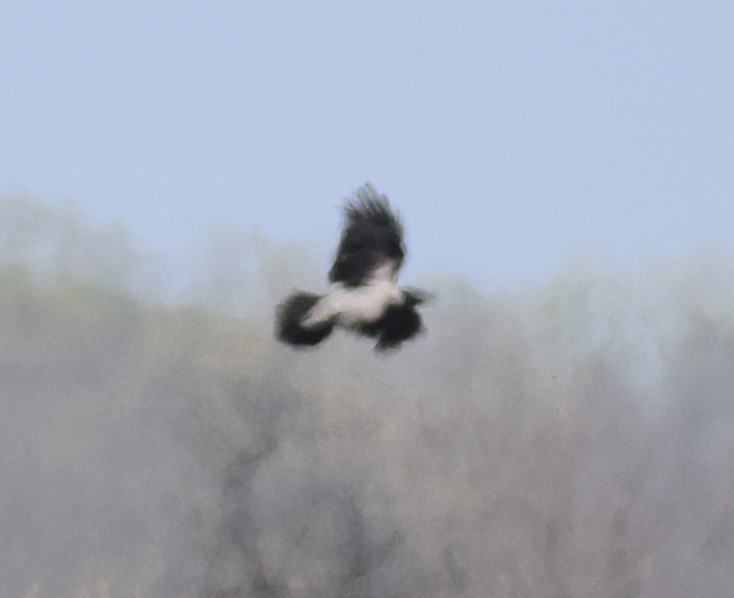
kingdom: Animalia
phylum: Chordata
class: Aves
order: Passeriformes
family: Corvidae
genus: Corvus
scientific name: Corvus cornix
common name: Hooded crow
